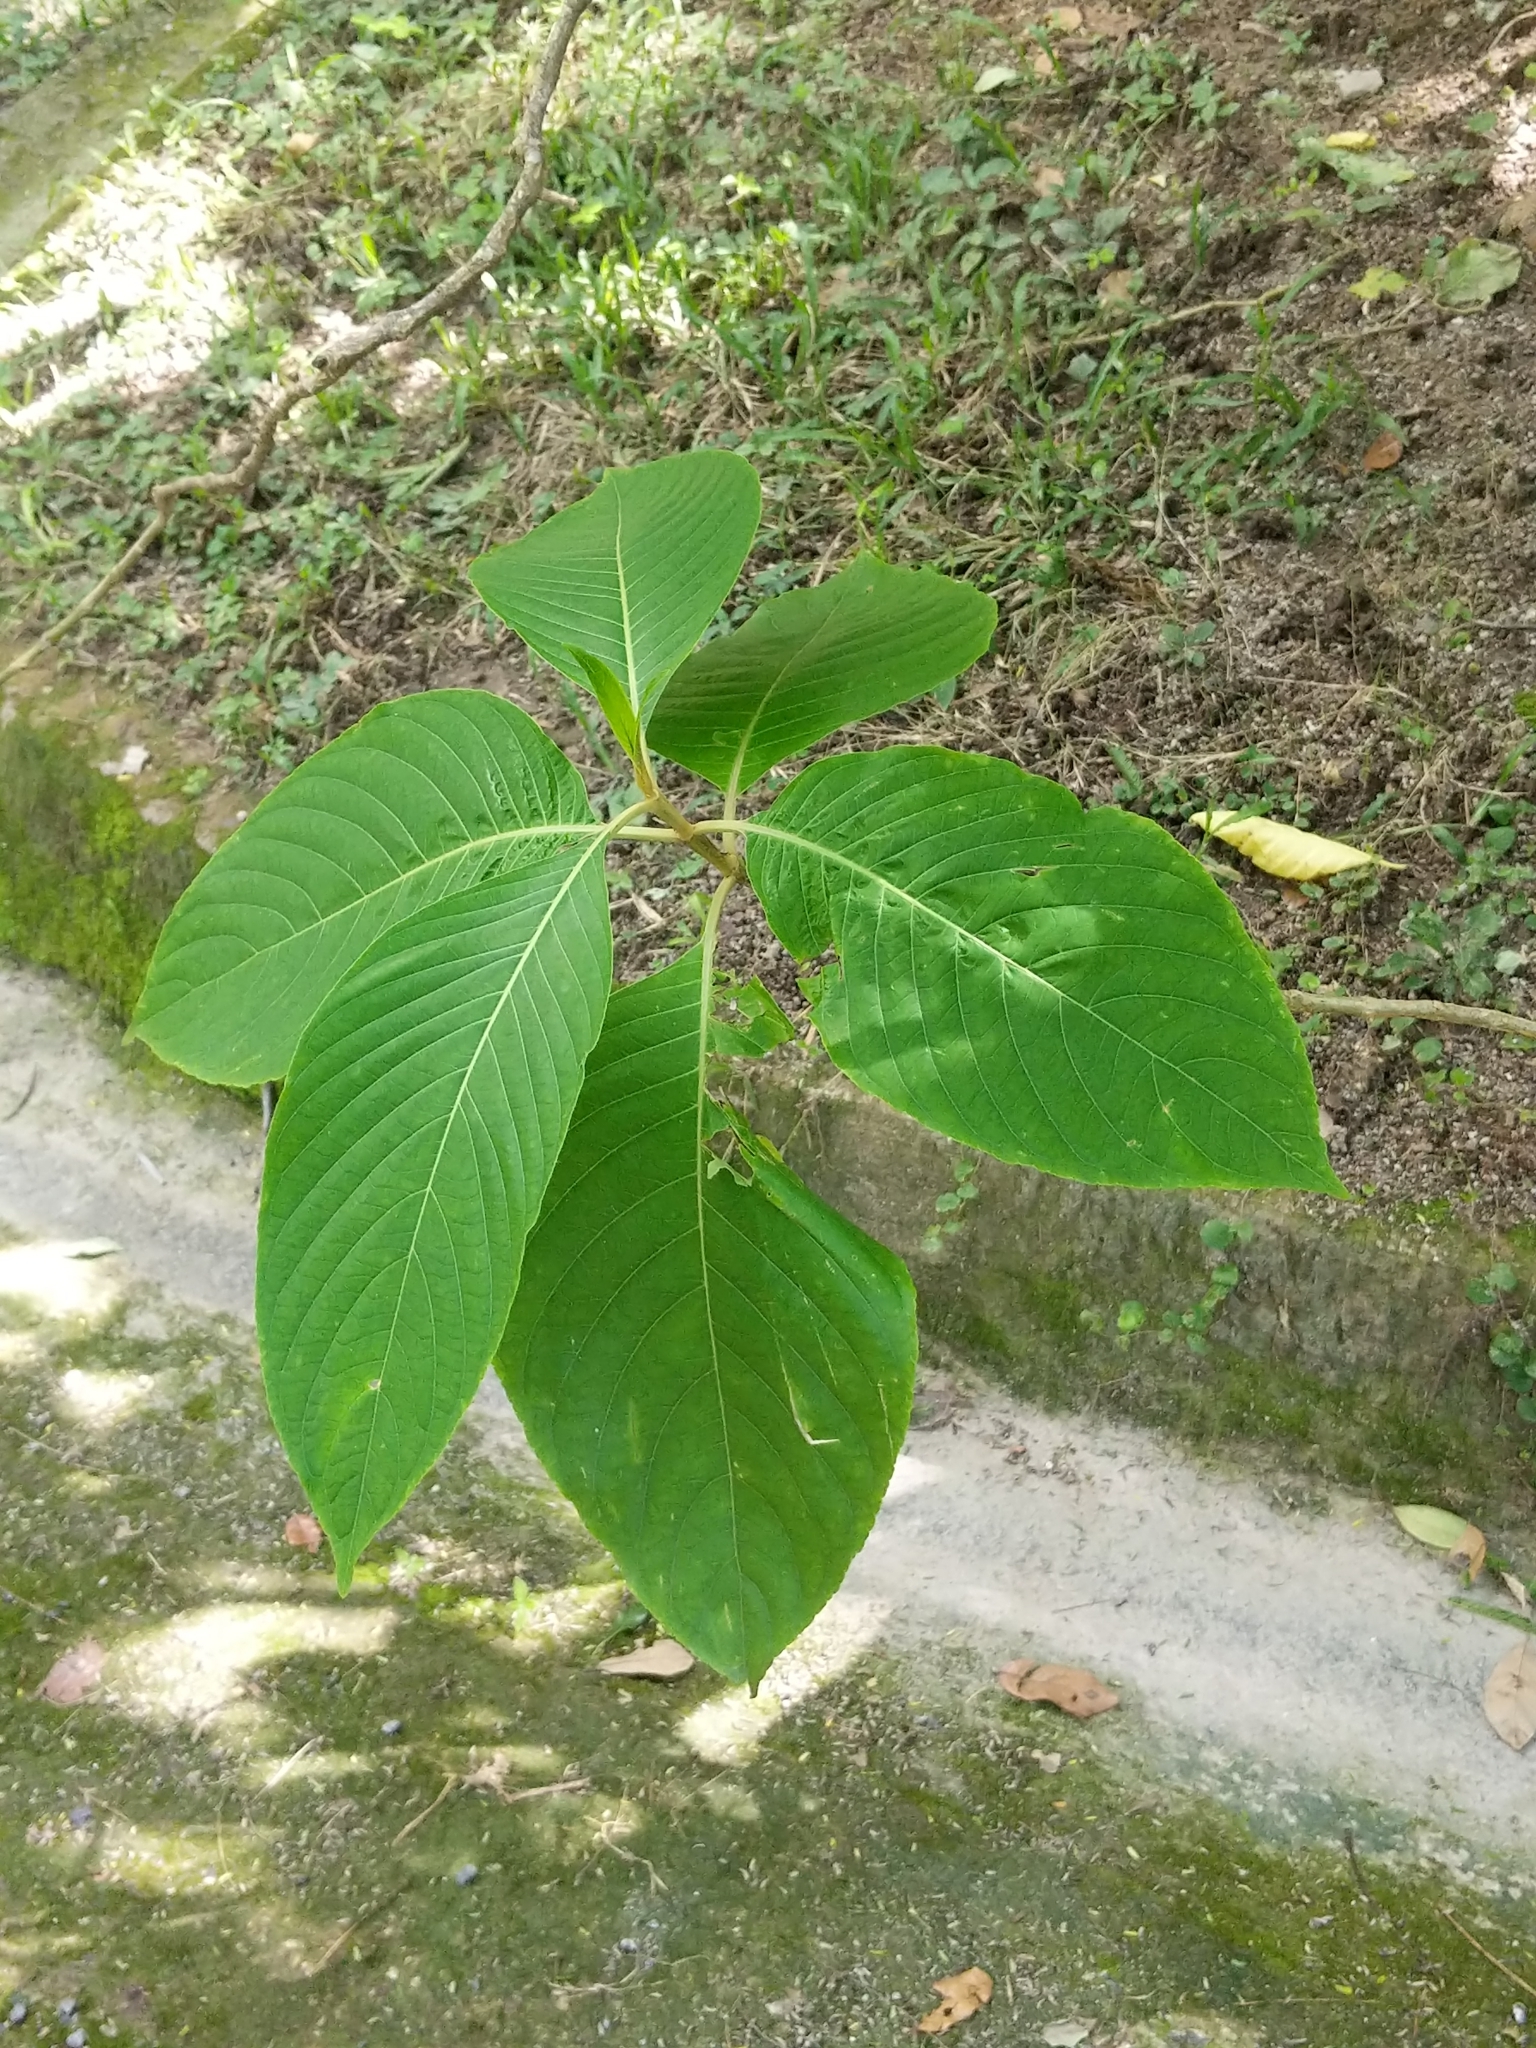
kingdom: Plantae
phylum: Tracheophyta
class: Magnoliopsida
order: Lamiales
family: Acanthaceae
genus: Megaskepasma
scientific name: Megaskepasma erythrochlamys
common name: Brazilian red-cloak
